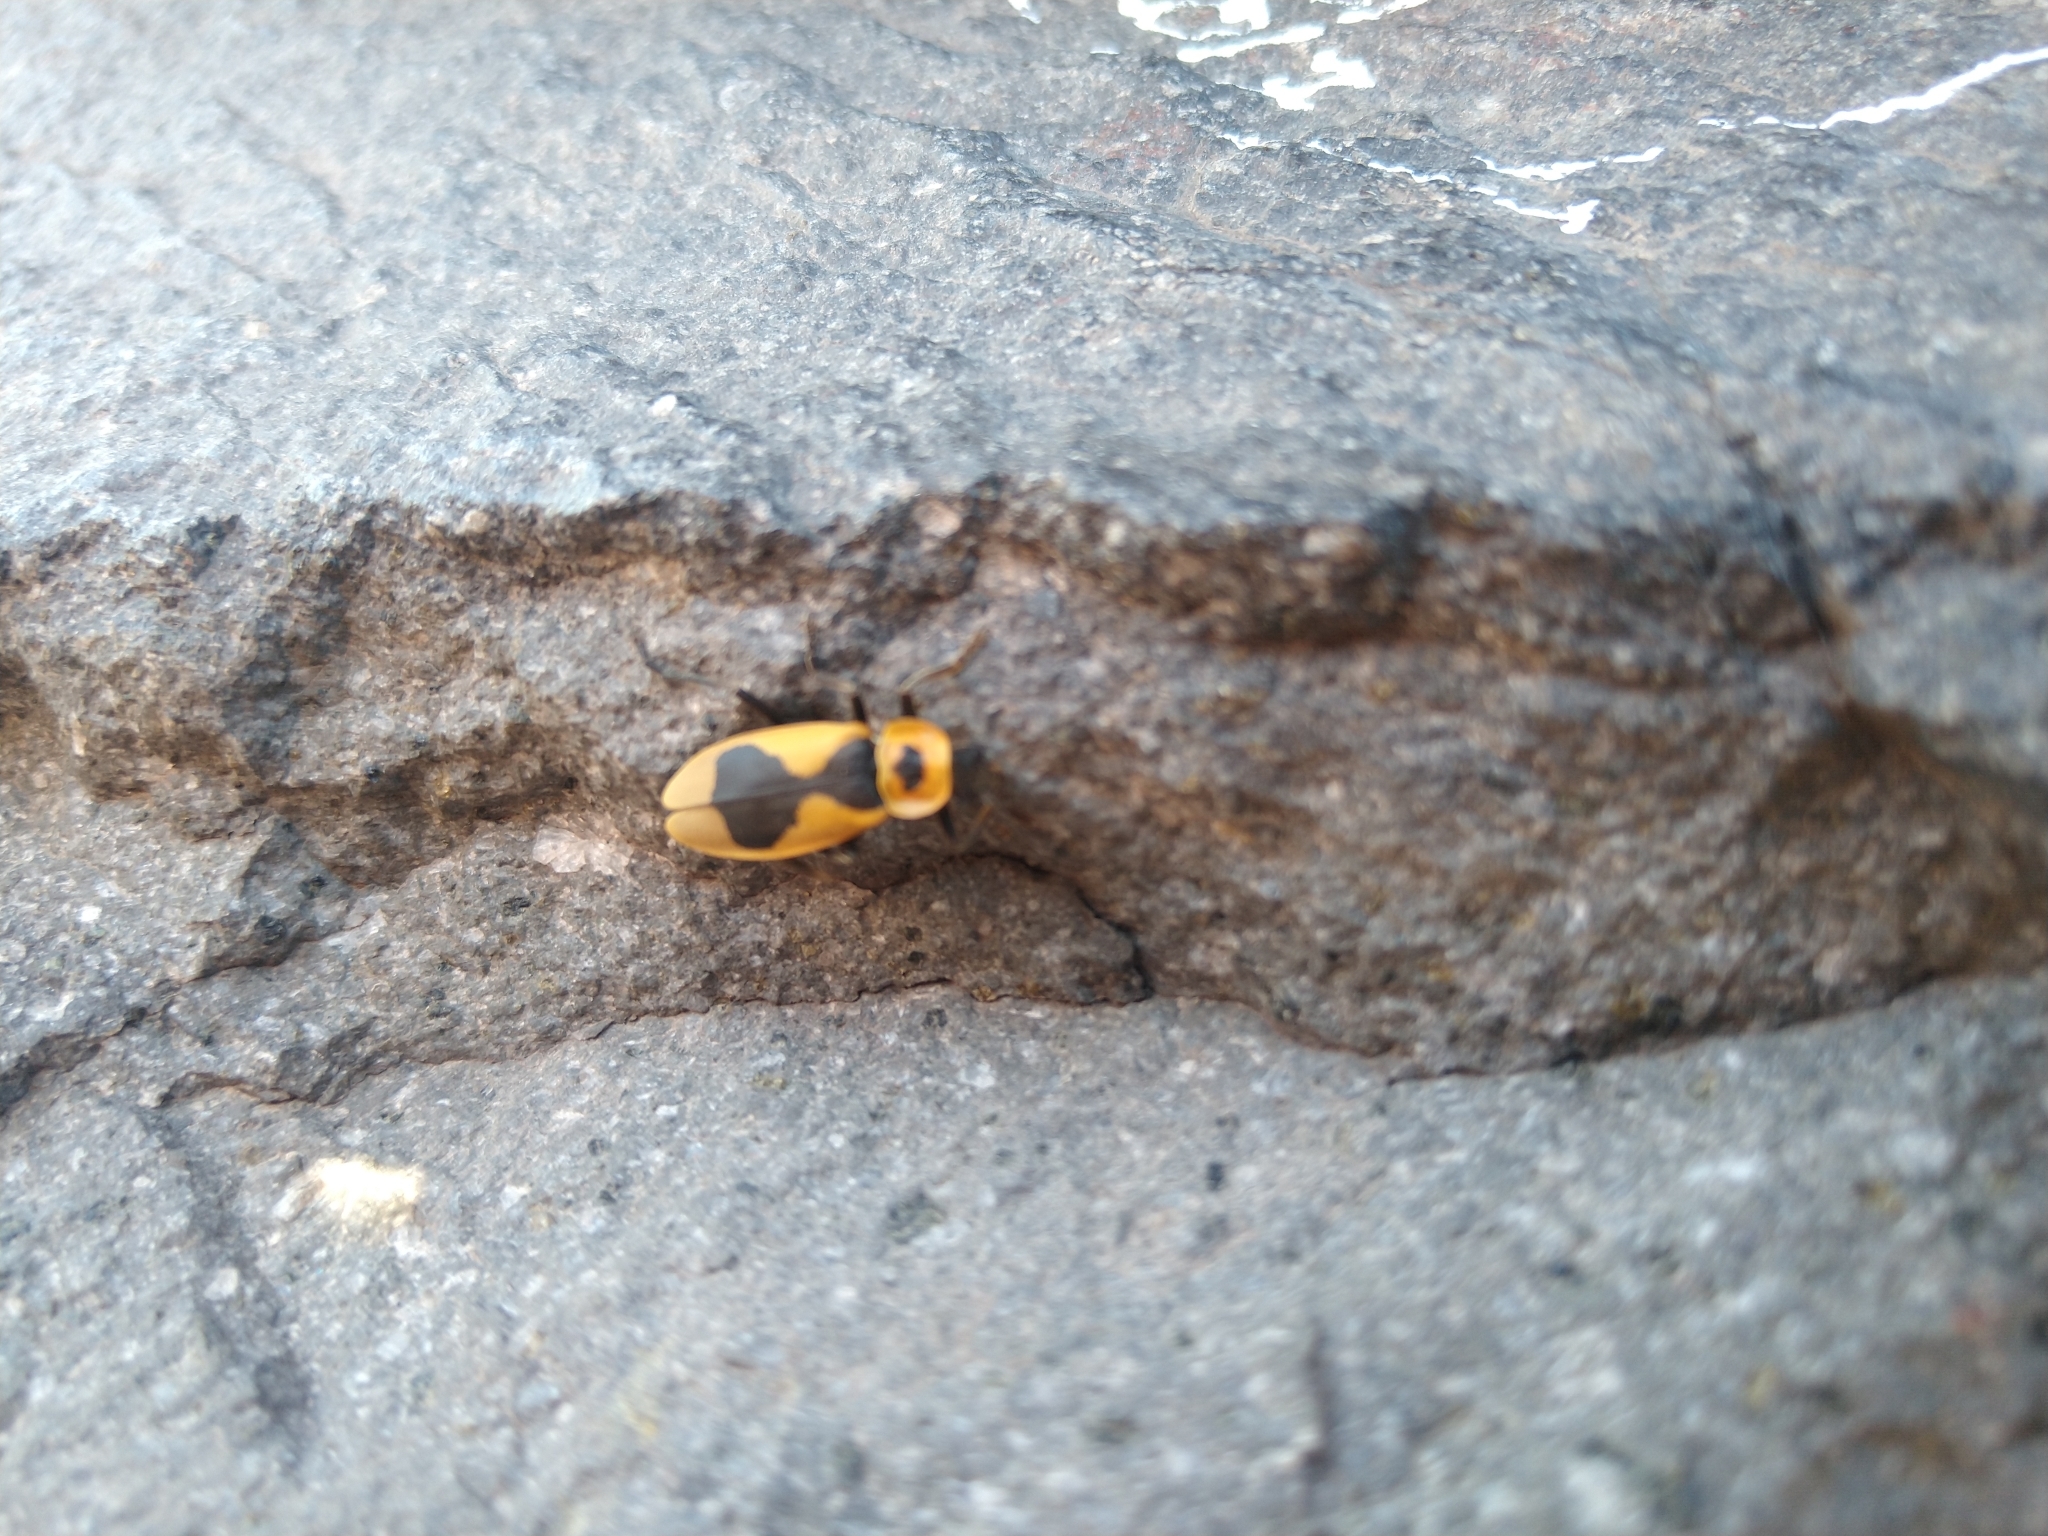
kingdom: Animalia
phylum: Arthropoda
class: Insecta
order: Coleoptera
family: Cantharidae
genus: Chauliognathus
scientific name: Chauliognathus
